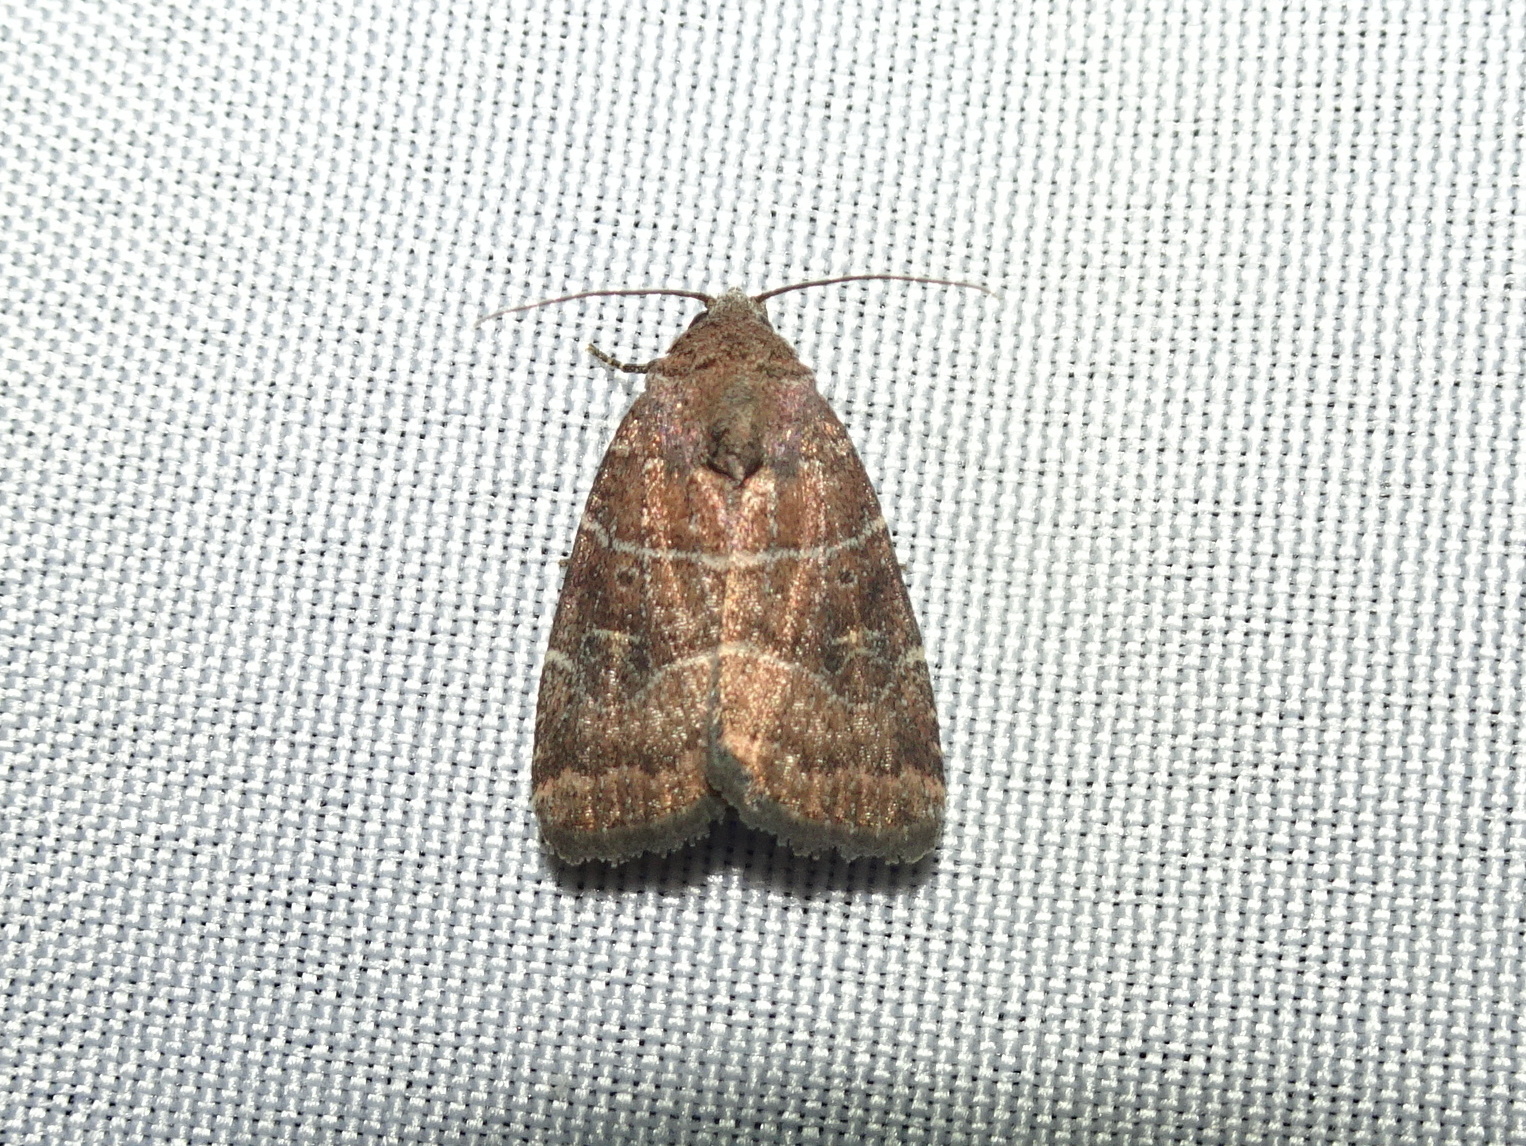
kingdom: Animalia
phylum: Arthropoda
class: Insecta
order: Lepidoptera
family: Noctuidae
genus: Elaphria
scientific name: Elaphria grata
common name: Grateful midget moth
